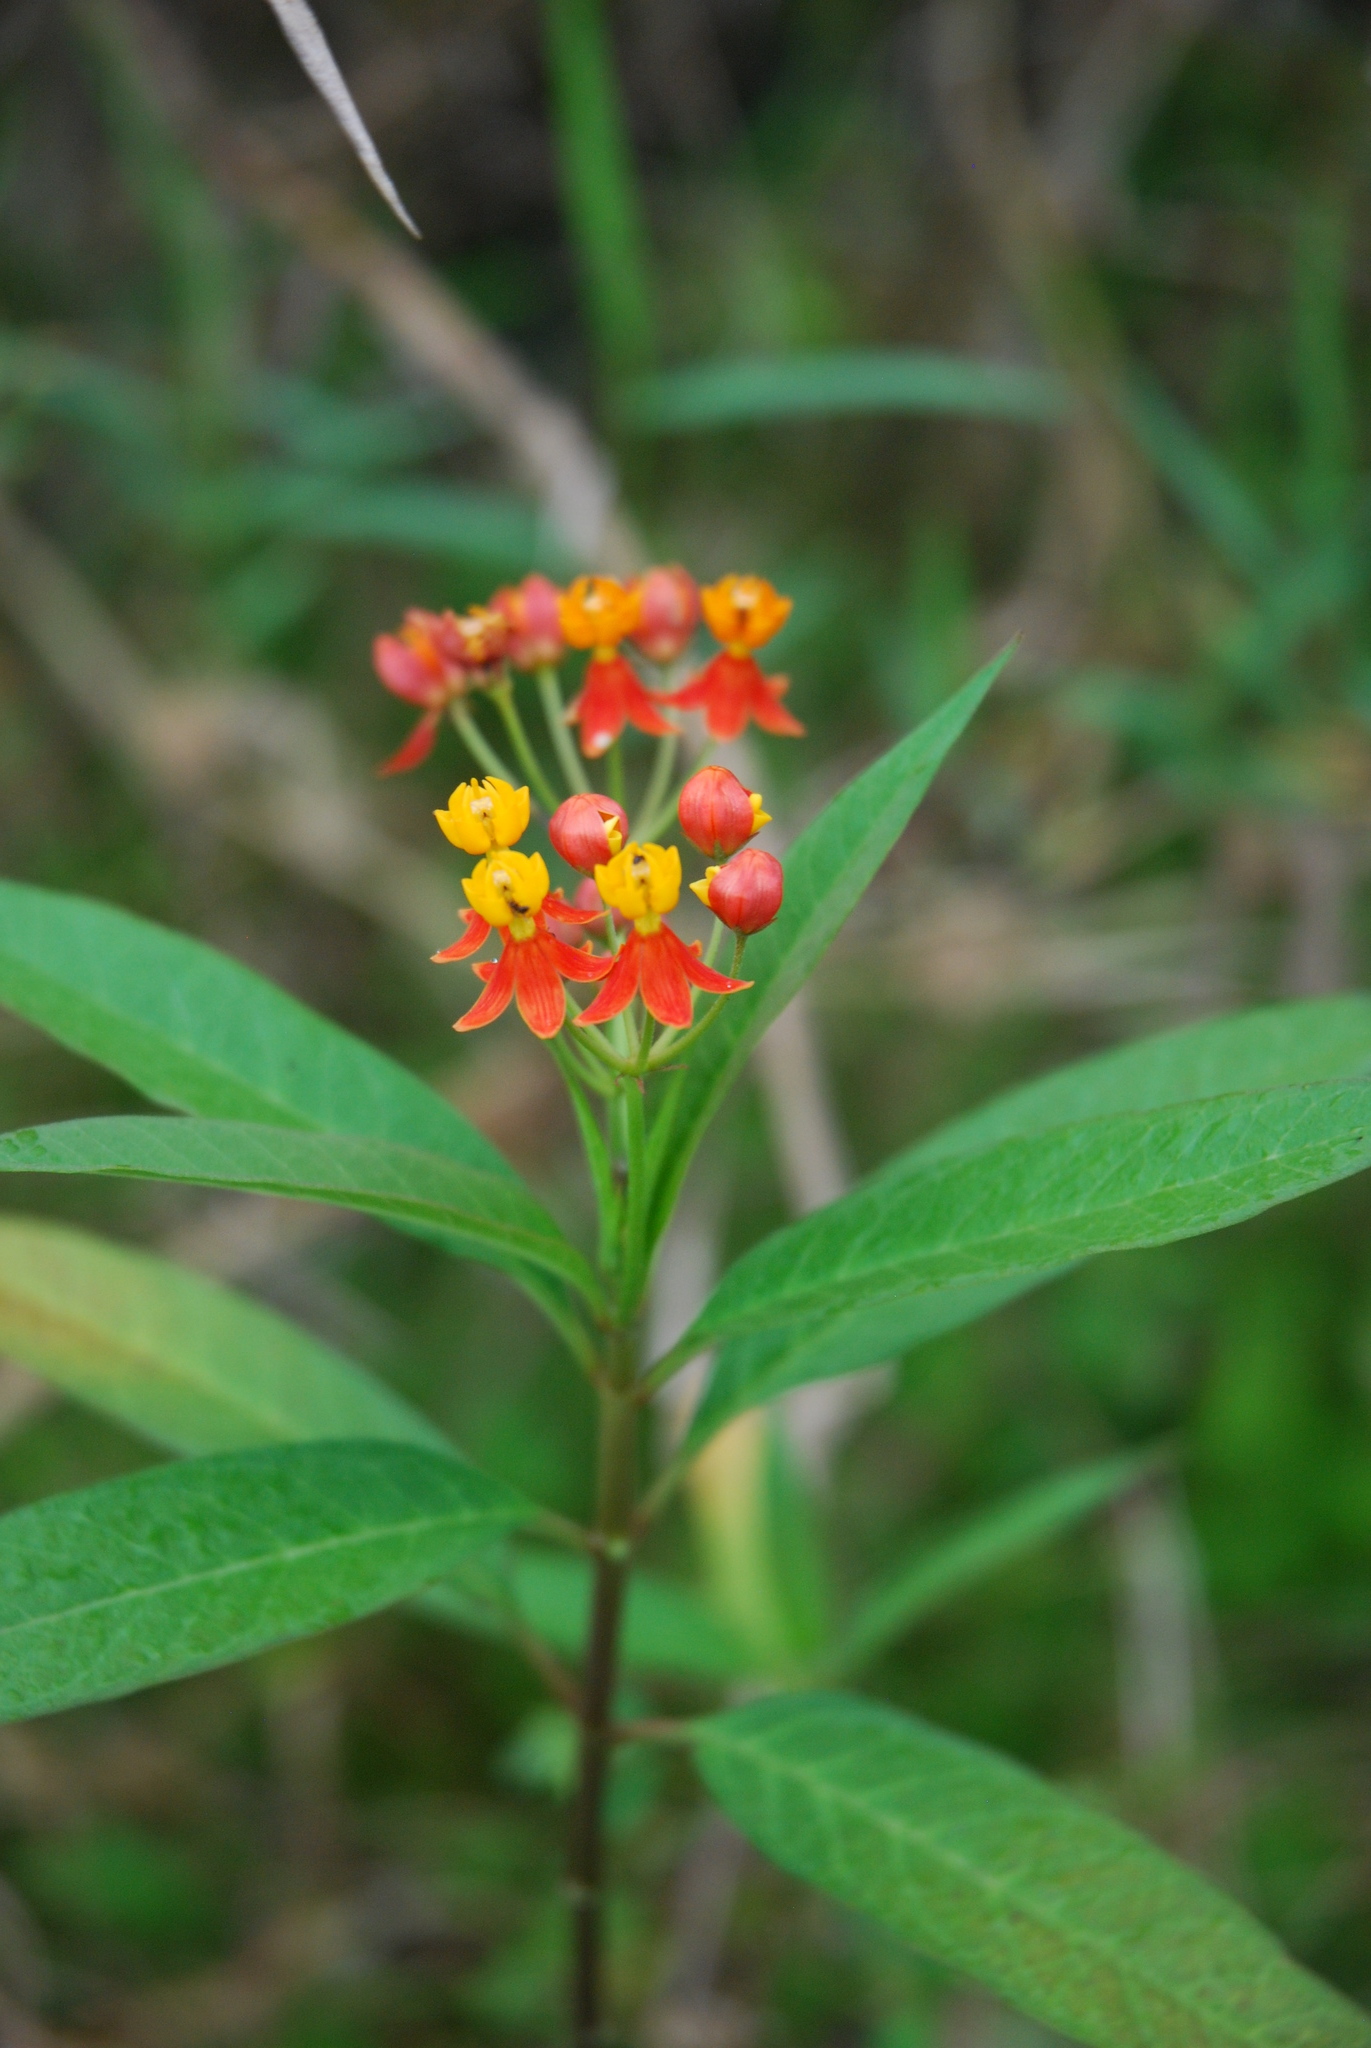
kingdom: Plantae
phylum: Tracheophyta
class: Magnoliopsida
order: Gentianales
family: Apocynaceae
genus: Asclepias
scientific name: Asclepias curassavica
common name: Bloodflower
